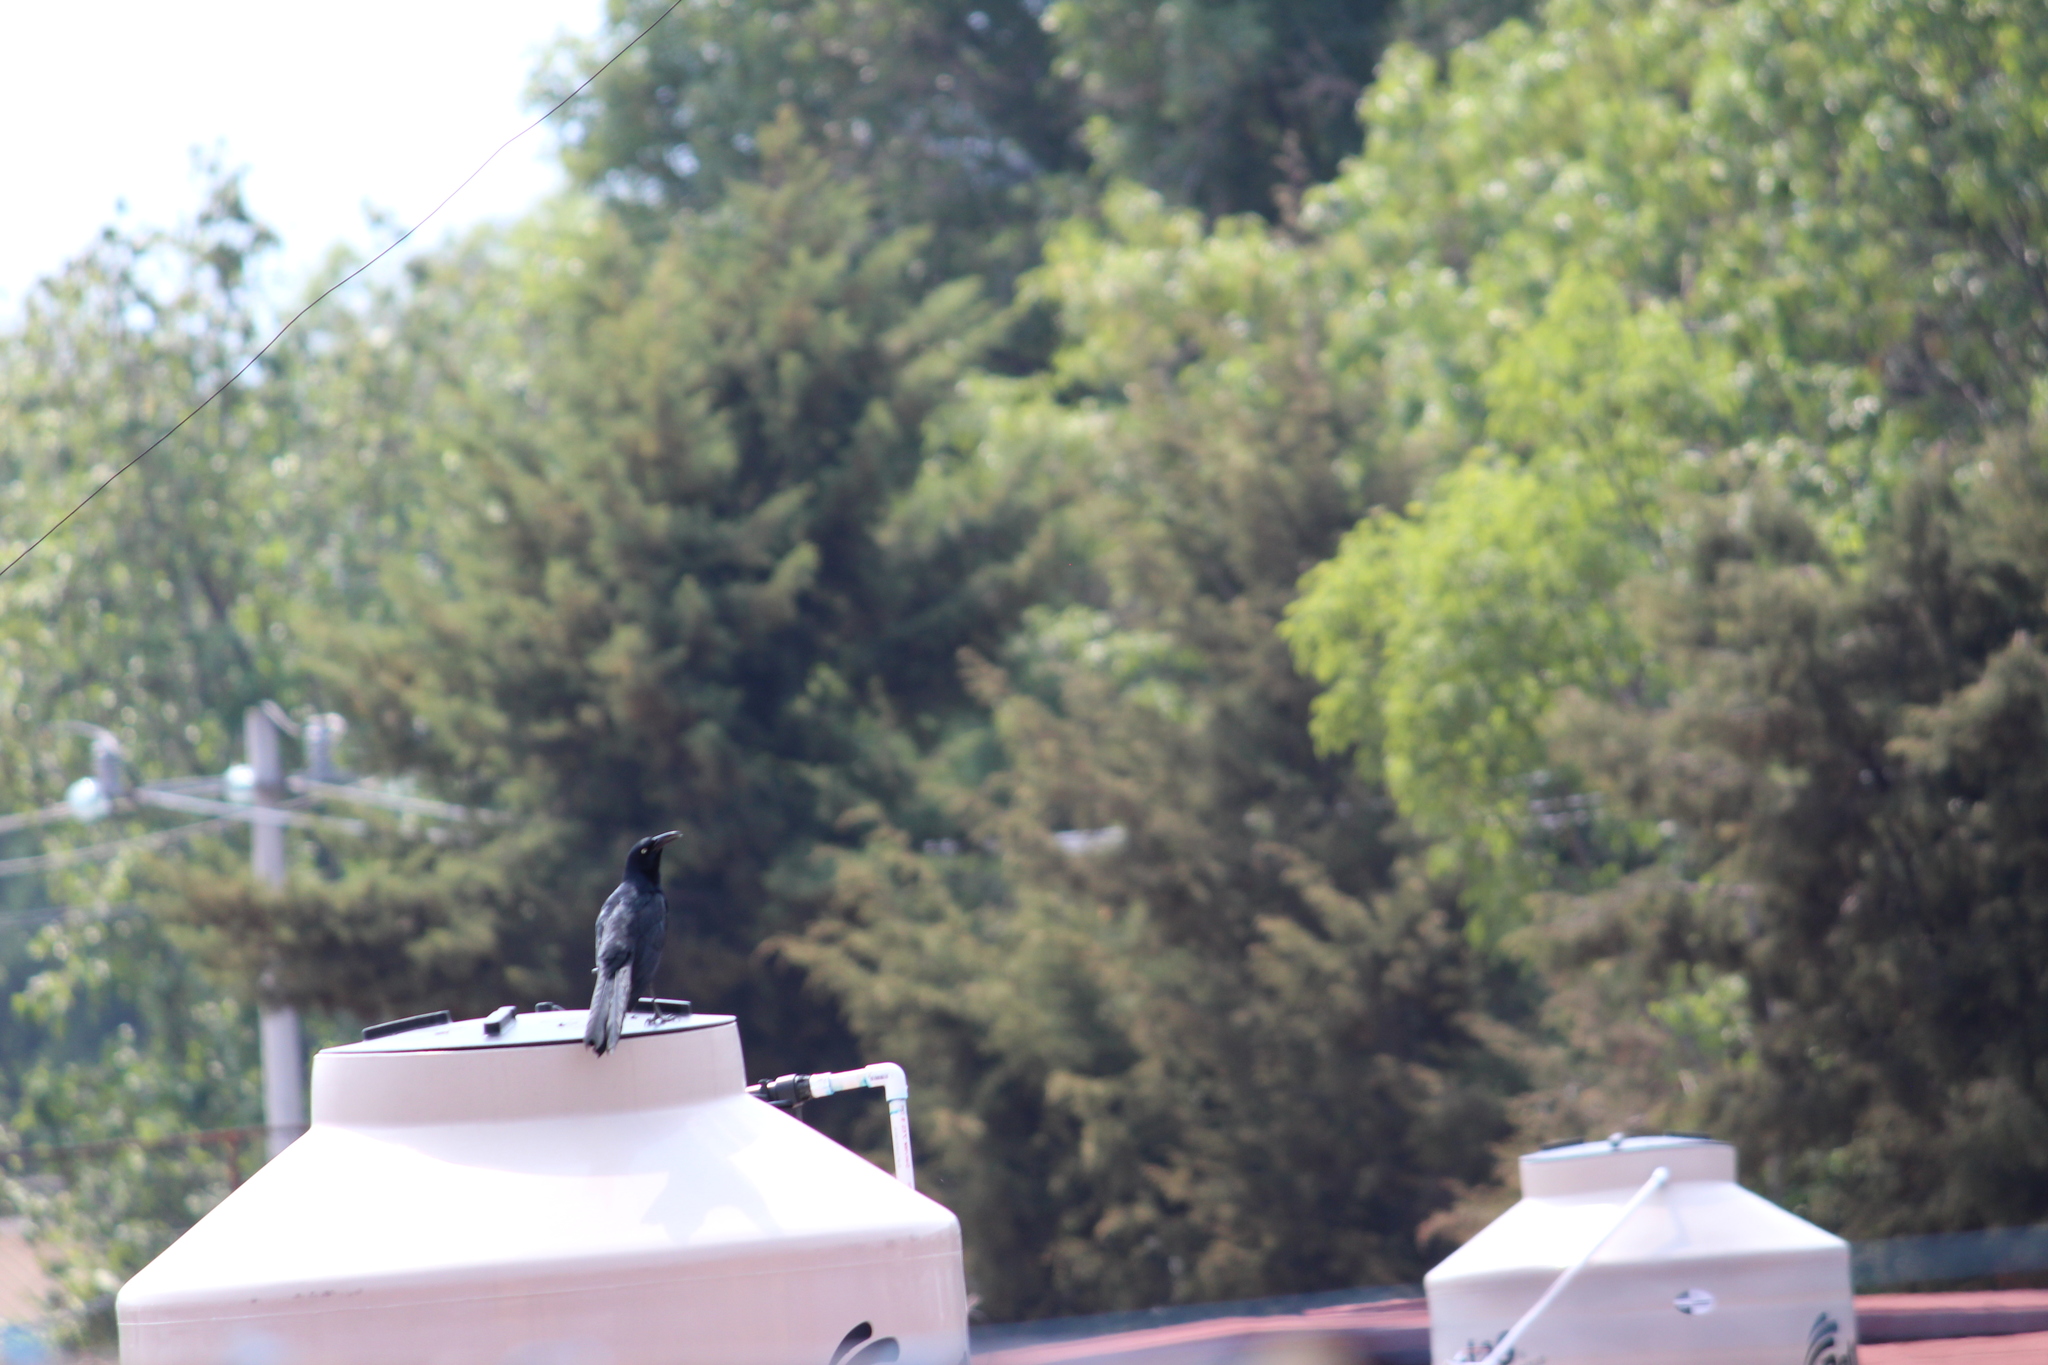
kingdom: Animalia
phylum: Chordata
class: Aves
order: Passeriformes
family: Icteridae
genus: Quiscalus
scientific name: Quiscalus mexicanus
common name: Great-tailed grackle
